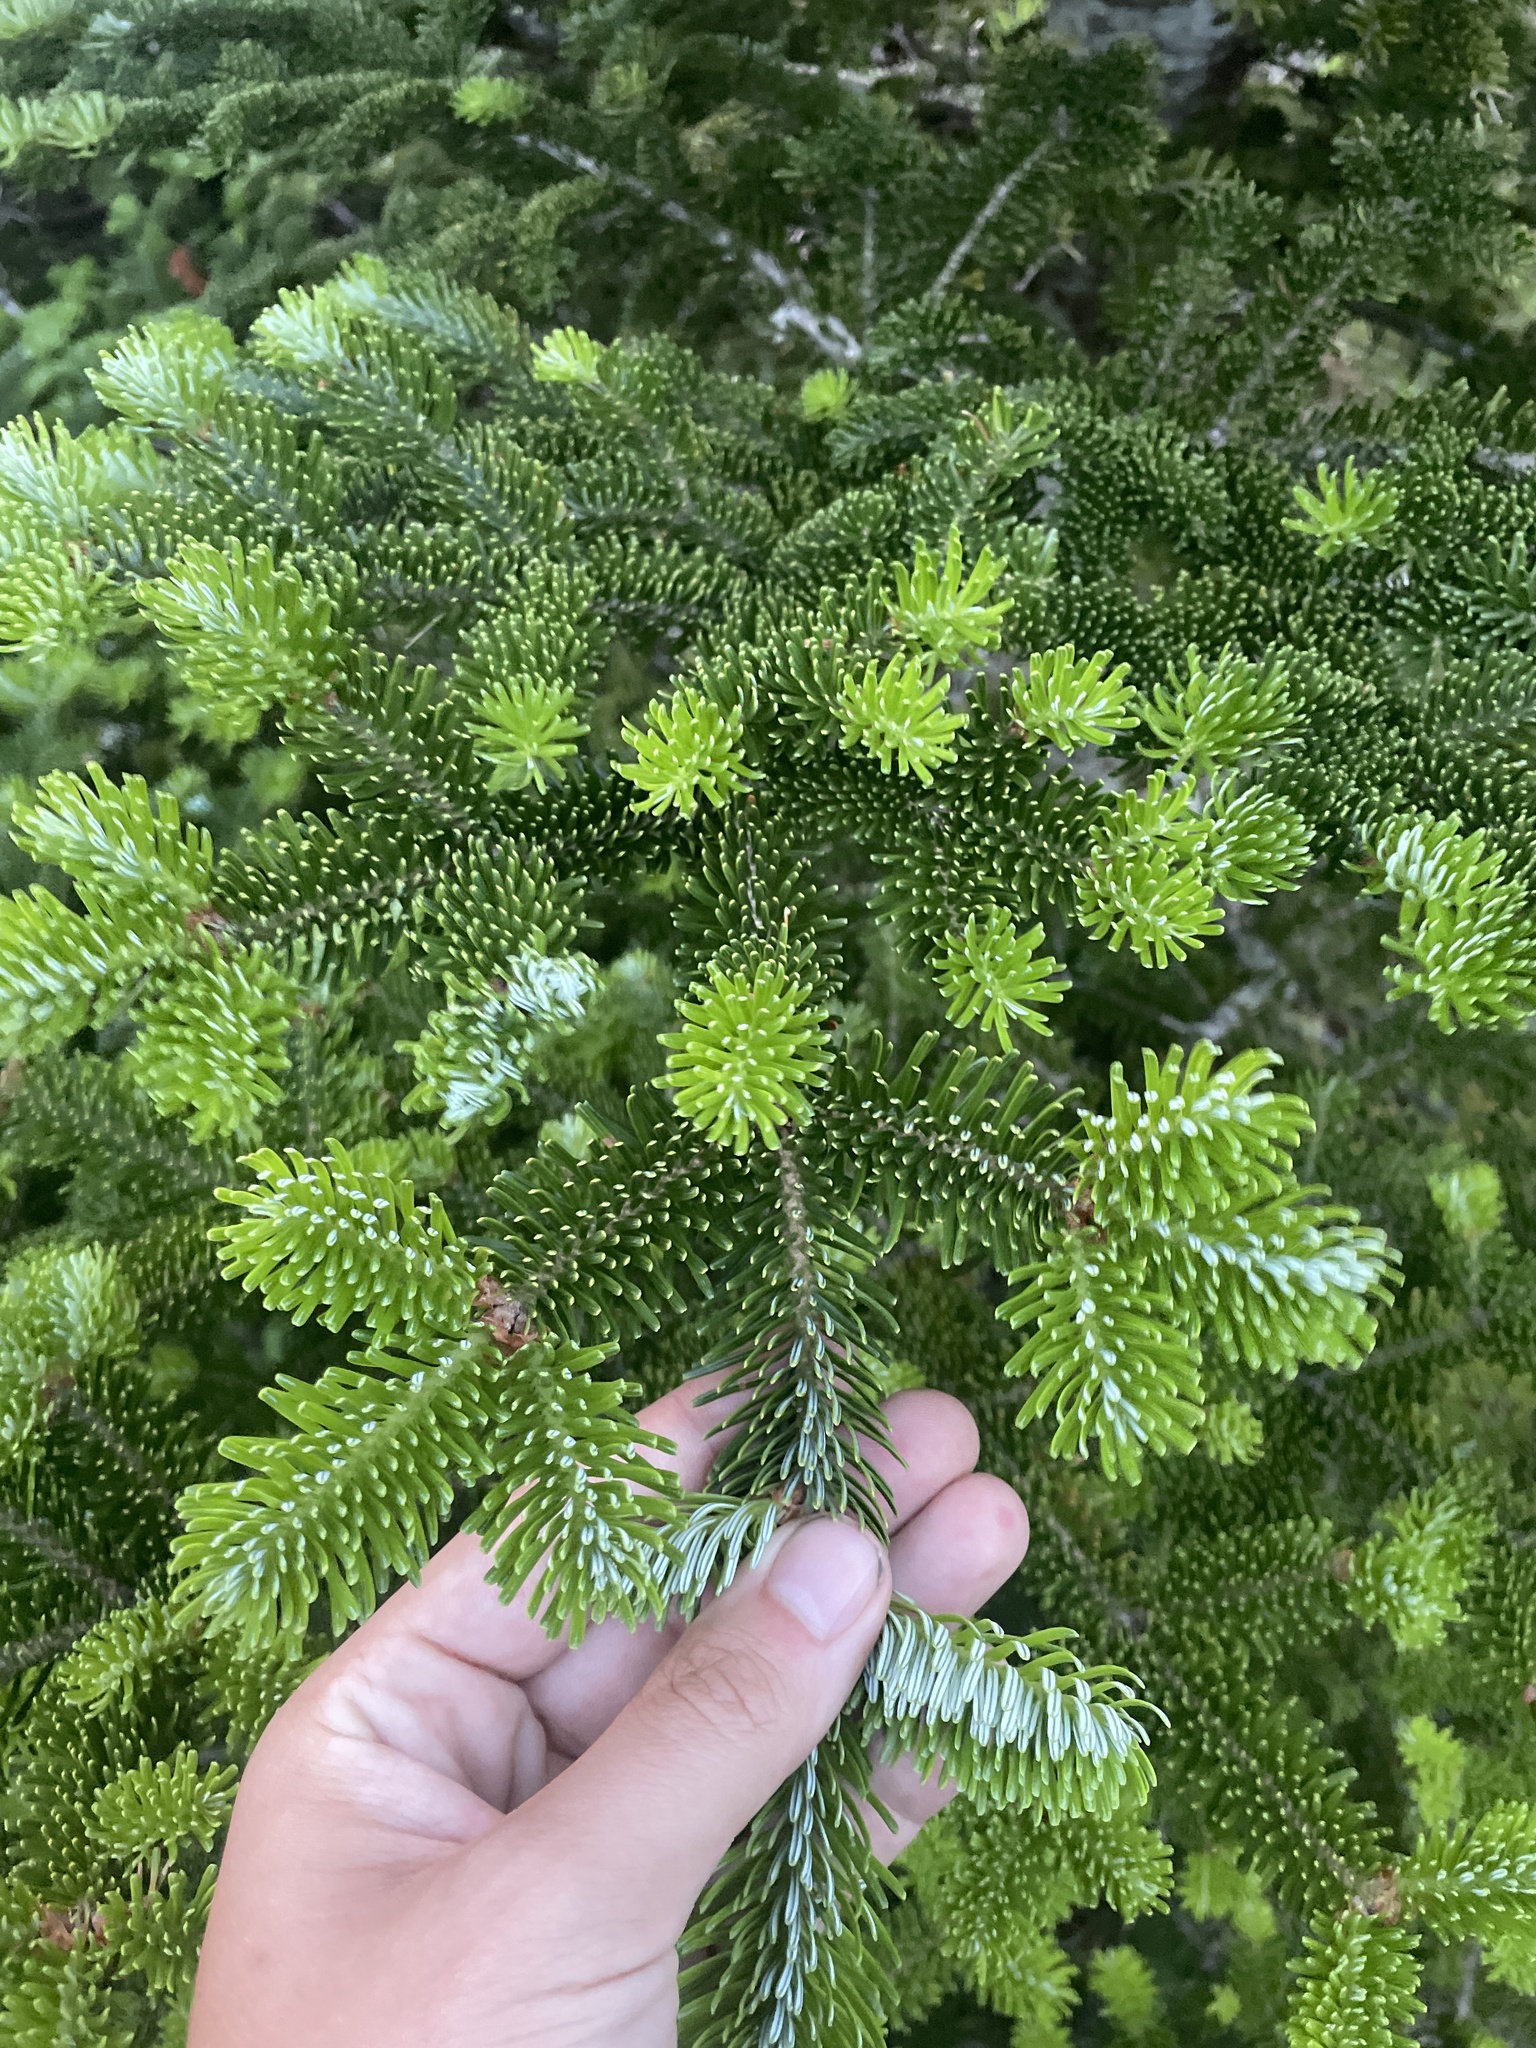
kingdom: Plantae
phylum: Tracheophyta
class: Pinopsida
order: Pinales
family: Pinaceae
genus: Abies
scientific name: Abies fraseri
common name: Fraser fir
